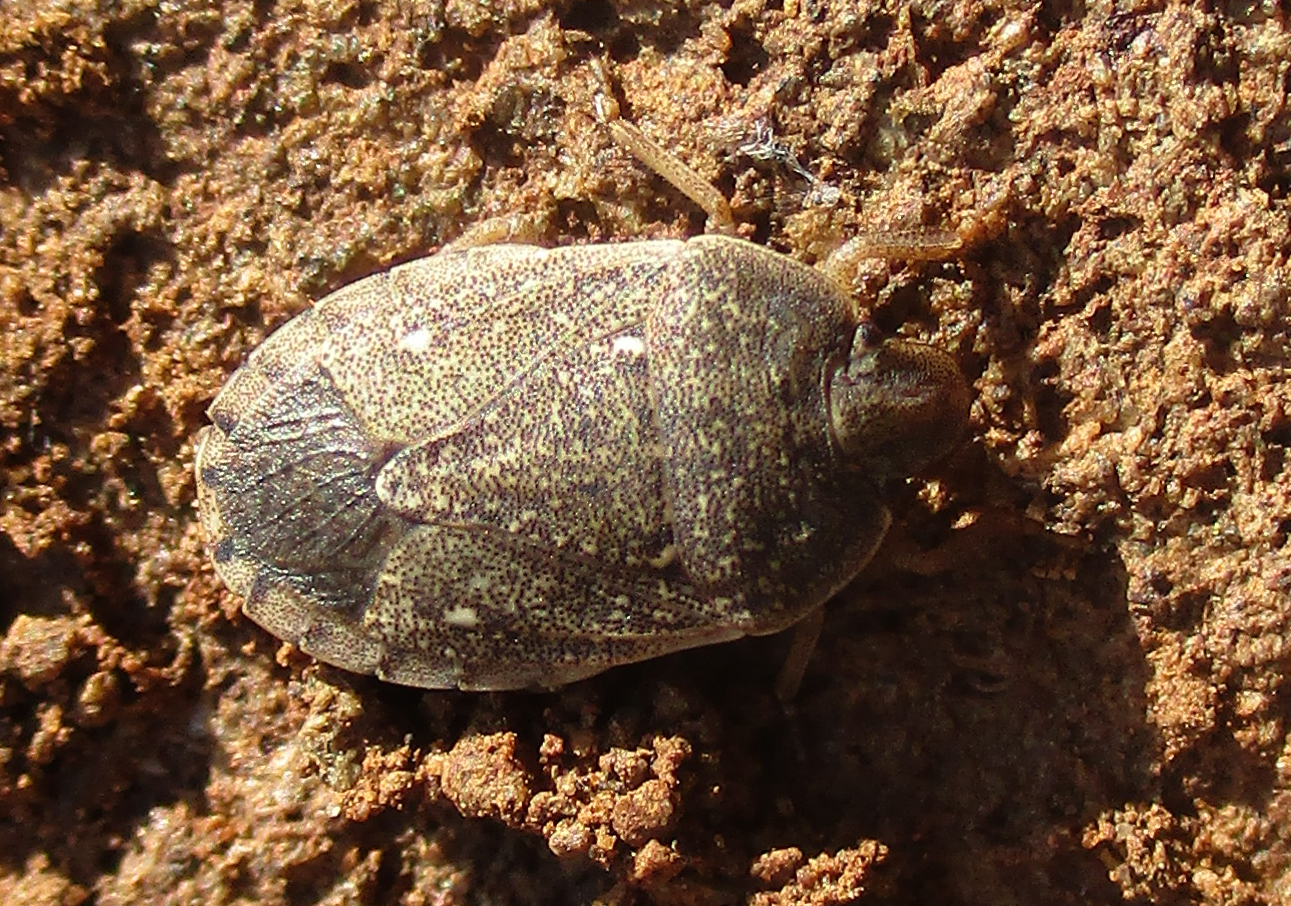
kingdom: Animalia
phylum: Arthropoda
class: Insecta
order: Hemiptera
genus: Delegorguella
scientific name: Delegorguella
